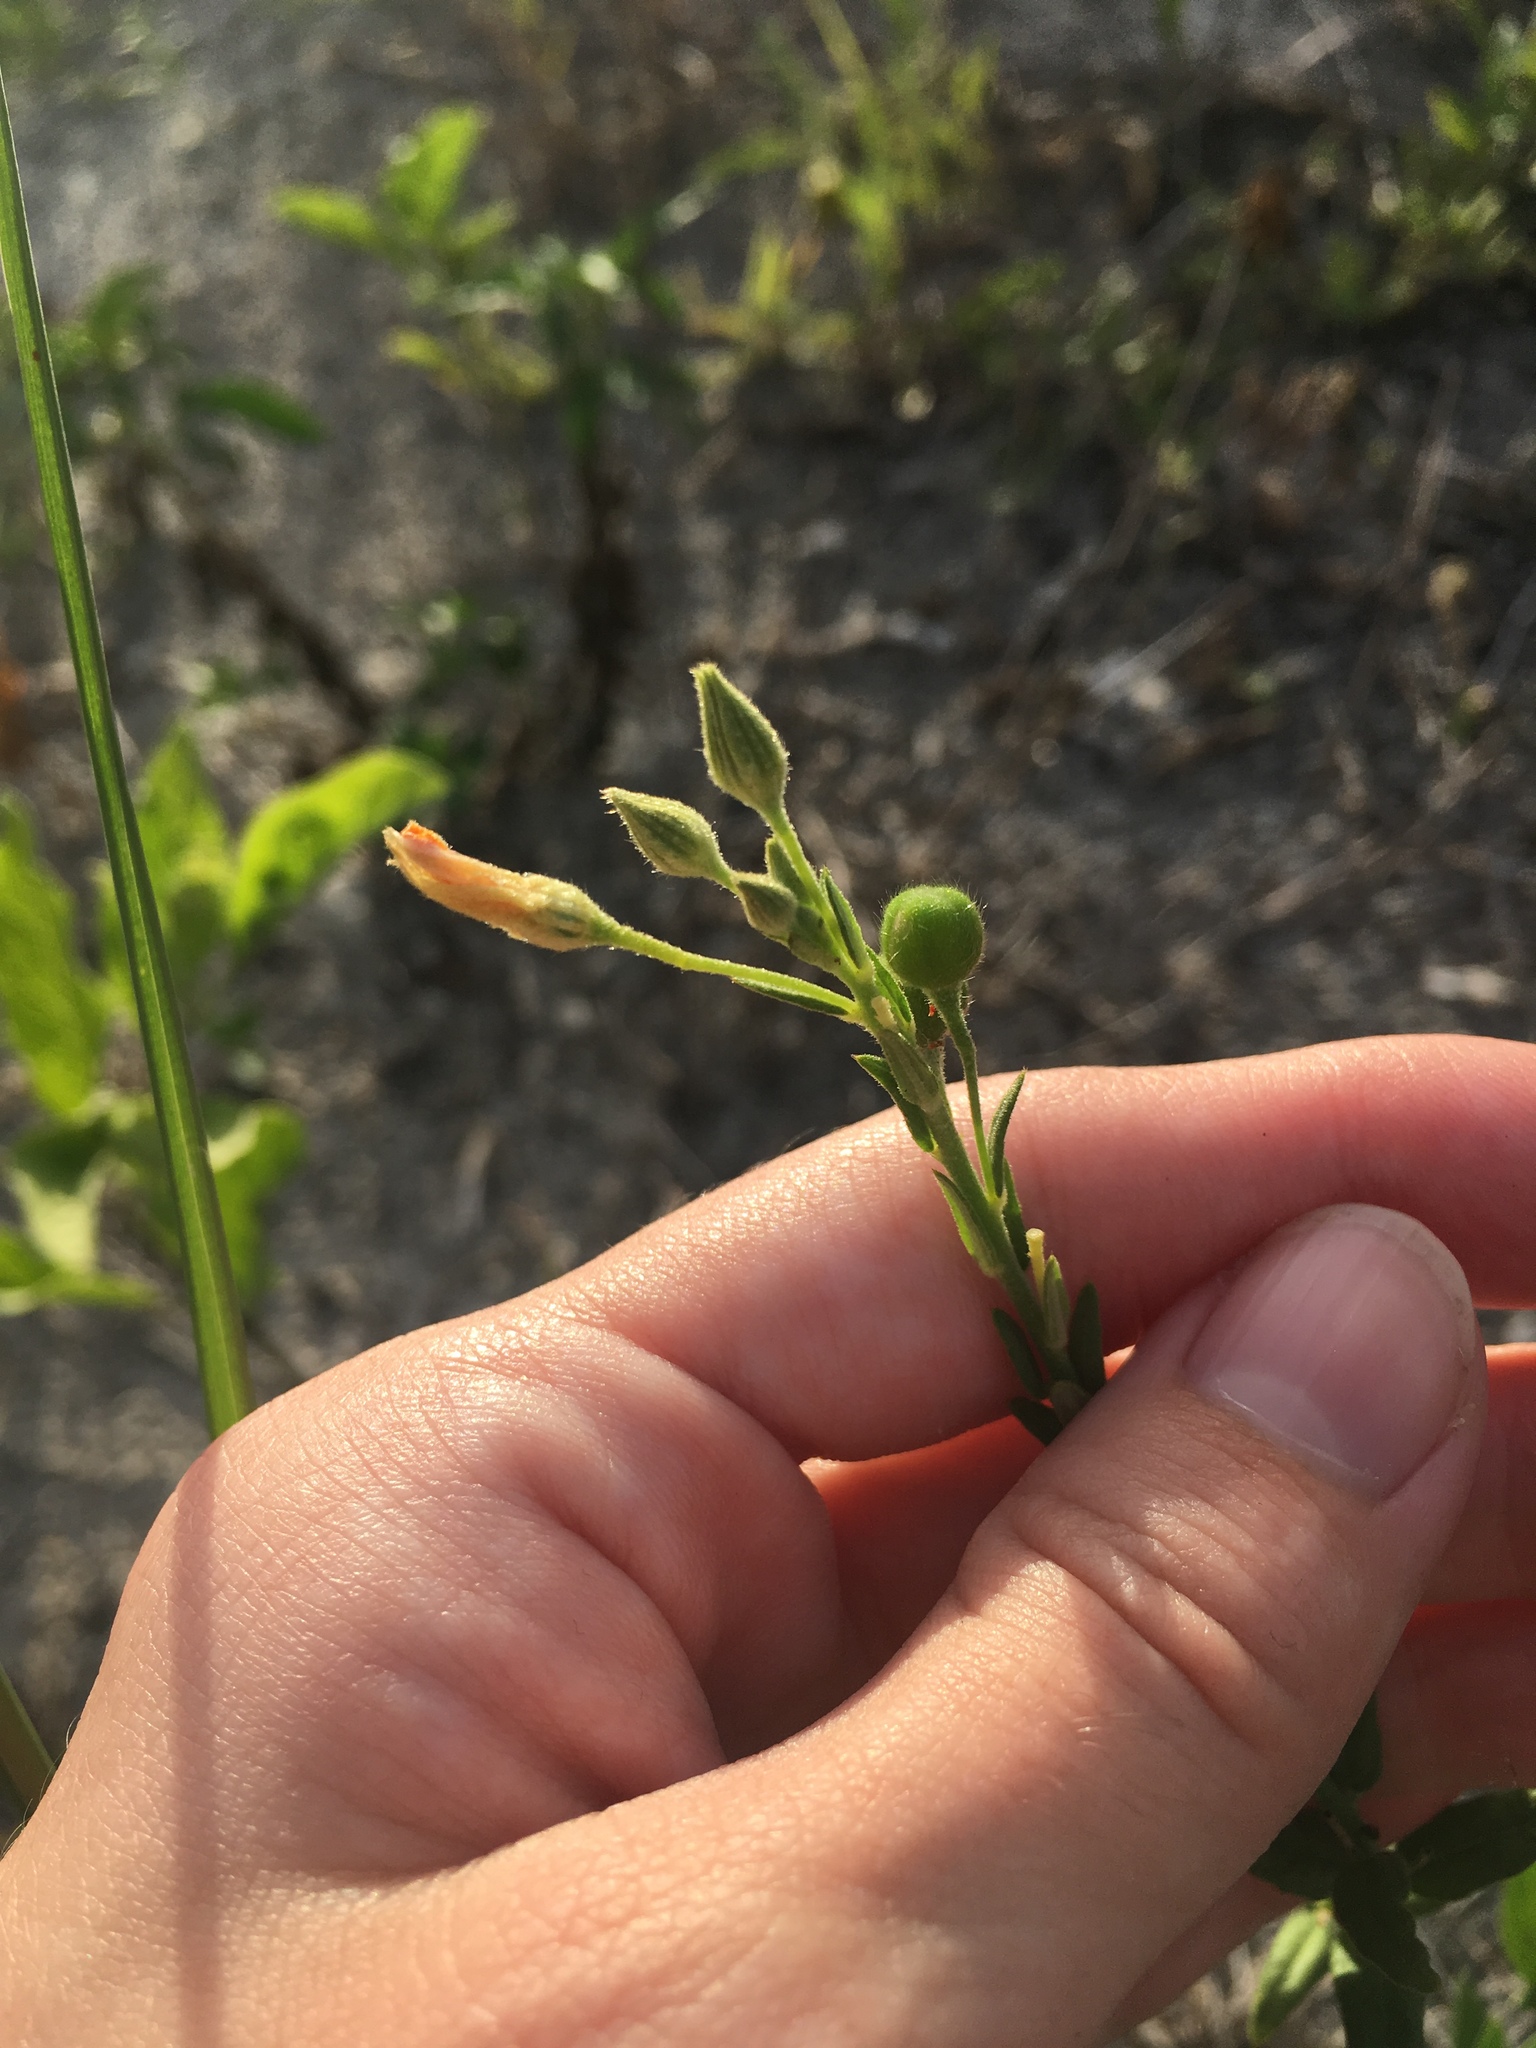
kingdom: Plantae
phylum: Tracheophyta
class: Magnoliopsida
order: Malpighiales
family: Turneraceae
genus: Piriqueta
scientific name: Piriqueta cistoides
